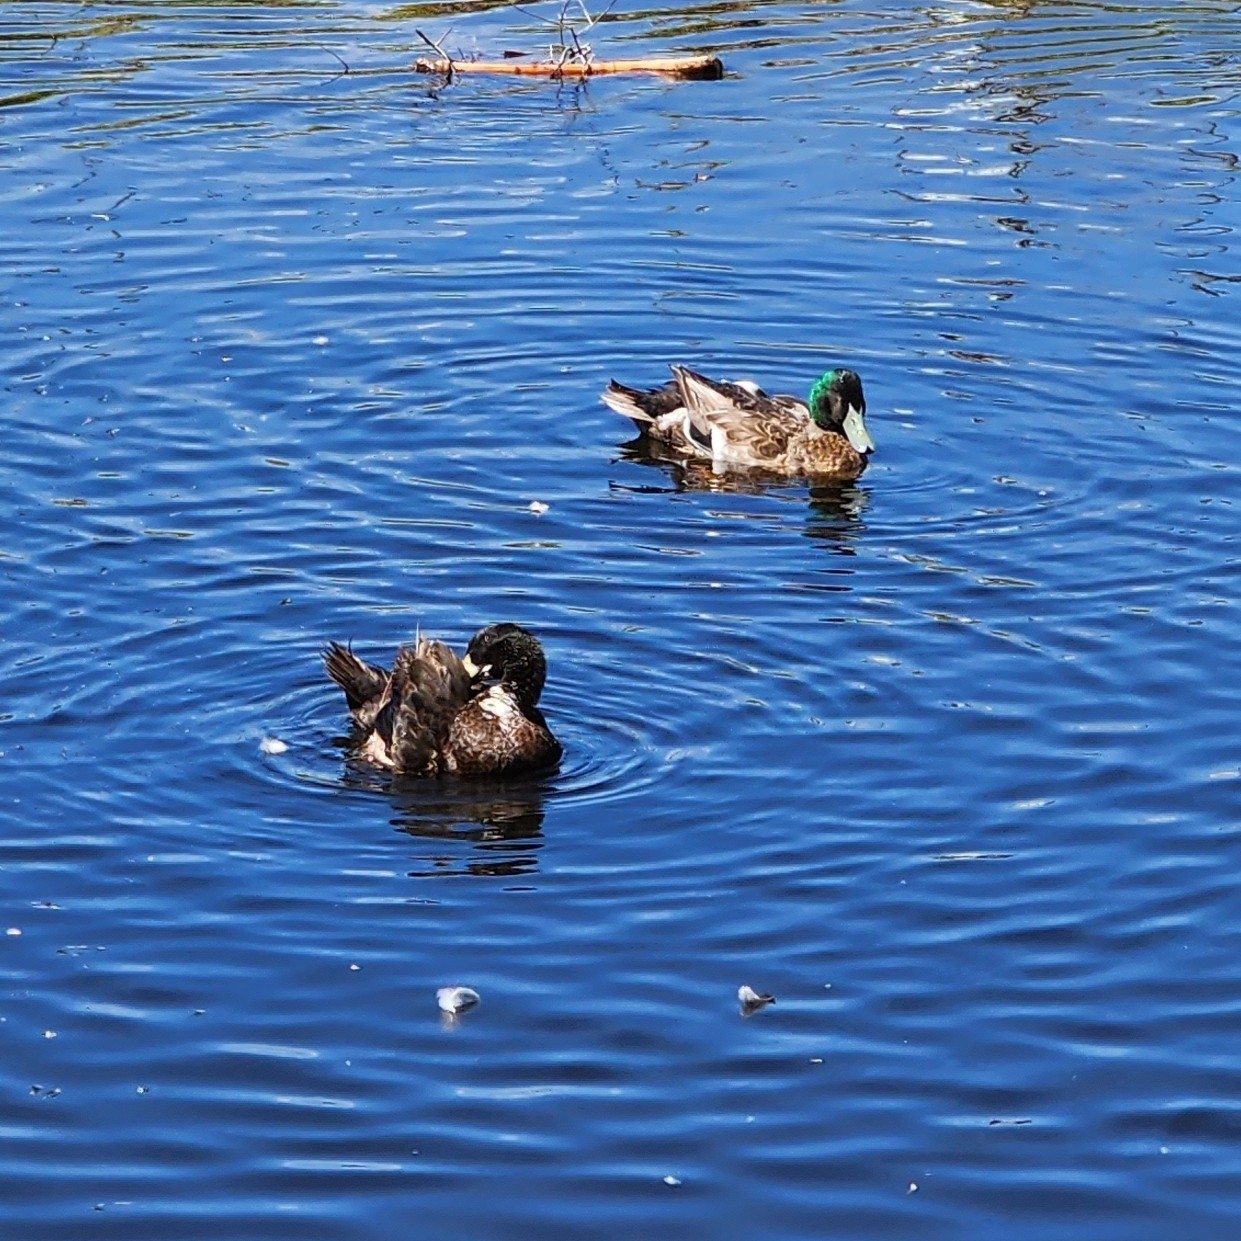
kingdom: Animalia
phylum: Chordata
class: Aves
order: Anseriformes
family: Anatidae
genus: Anas
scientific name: Anas platyrhynchos
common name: Mallard
